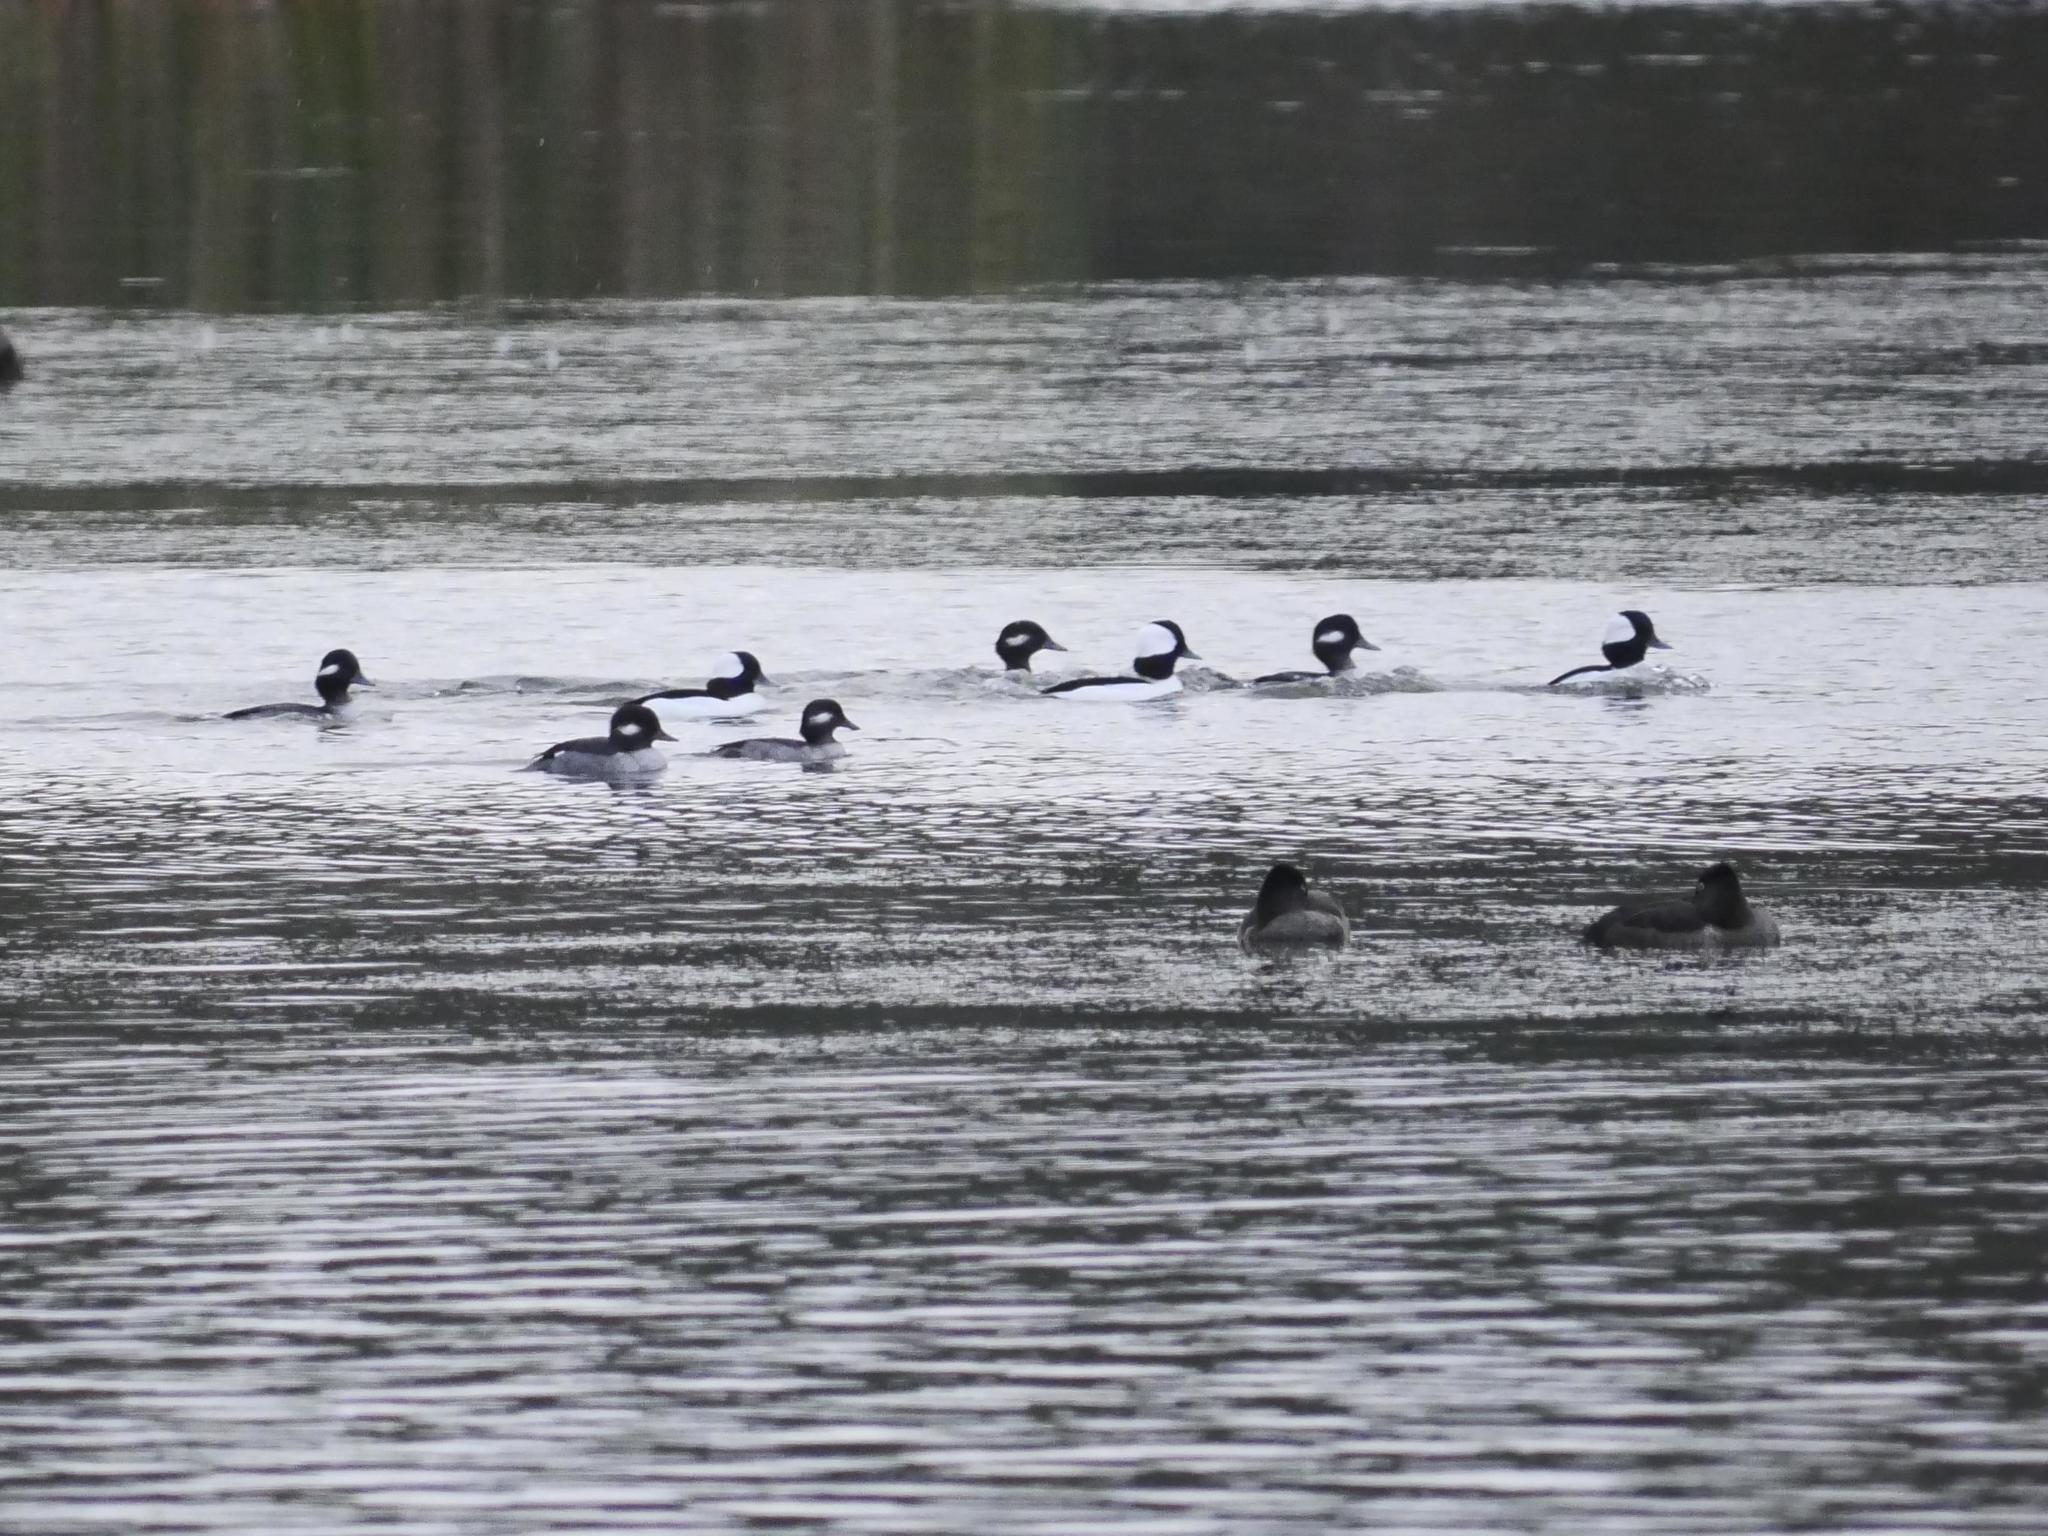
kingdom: Animalia
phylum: Chordata
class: Aves
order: Anseriformes
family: Anatidae
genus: Bucephala
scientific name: Bucephala albeola
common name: Bufflehead
